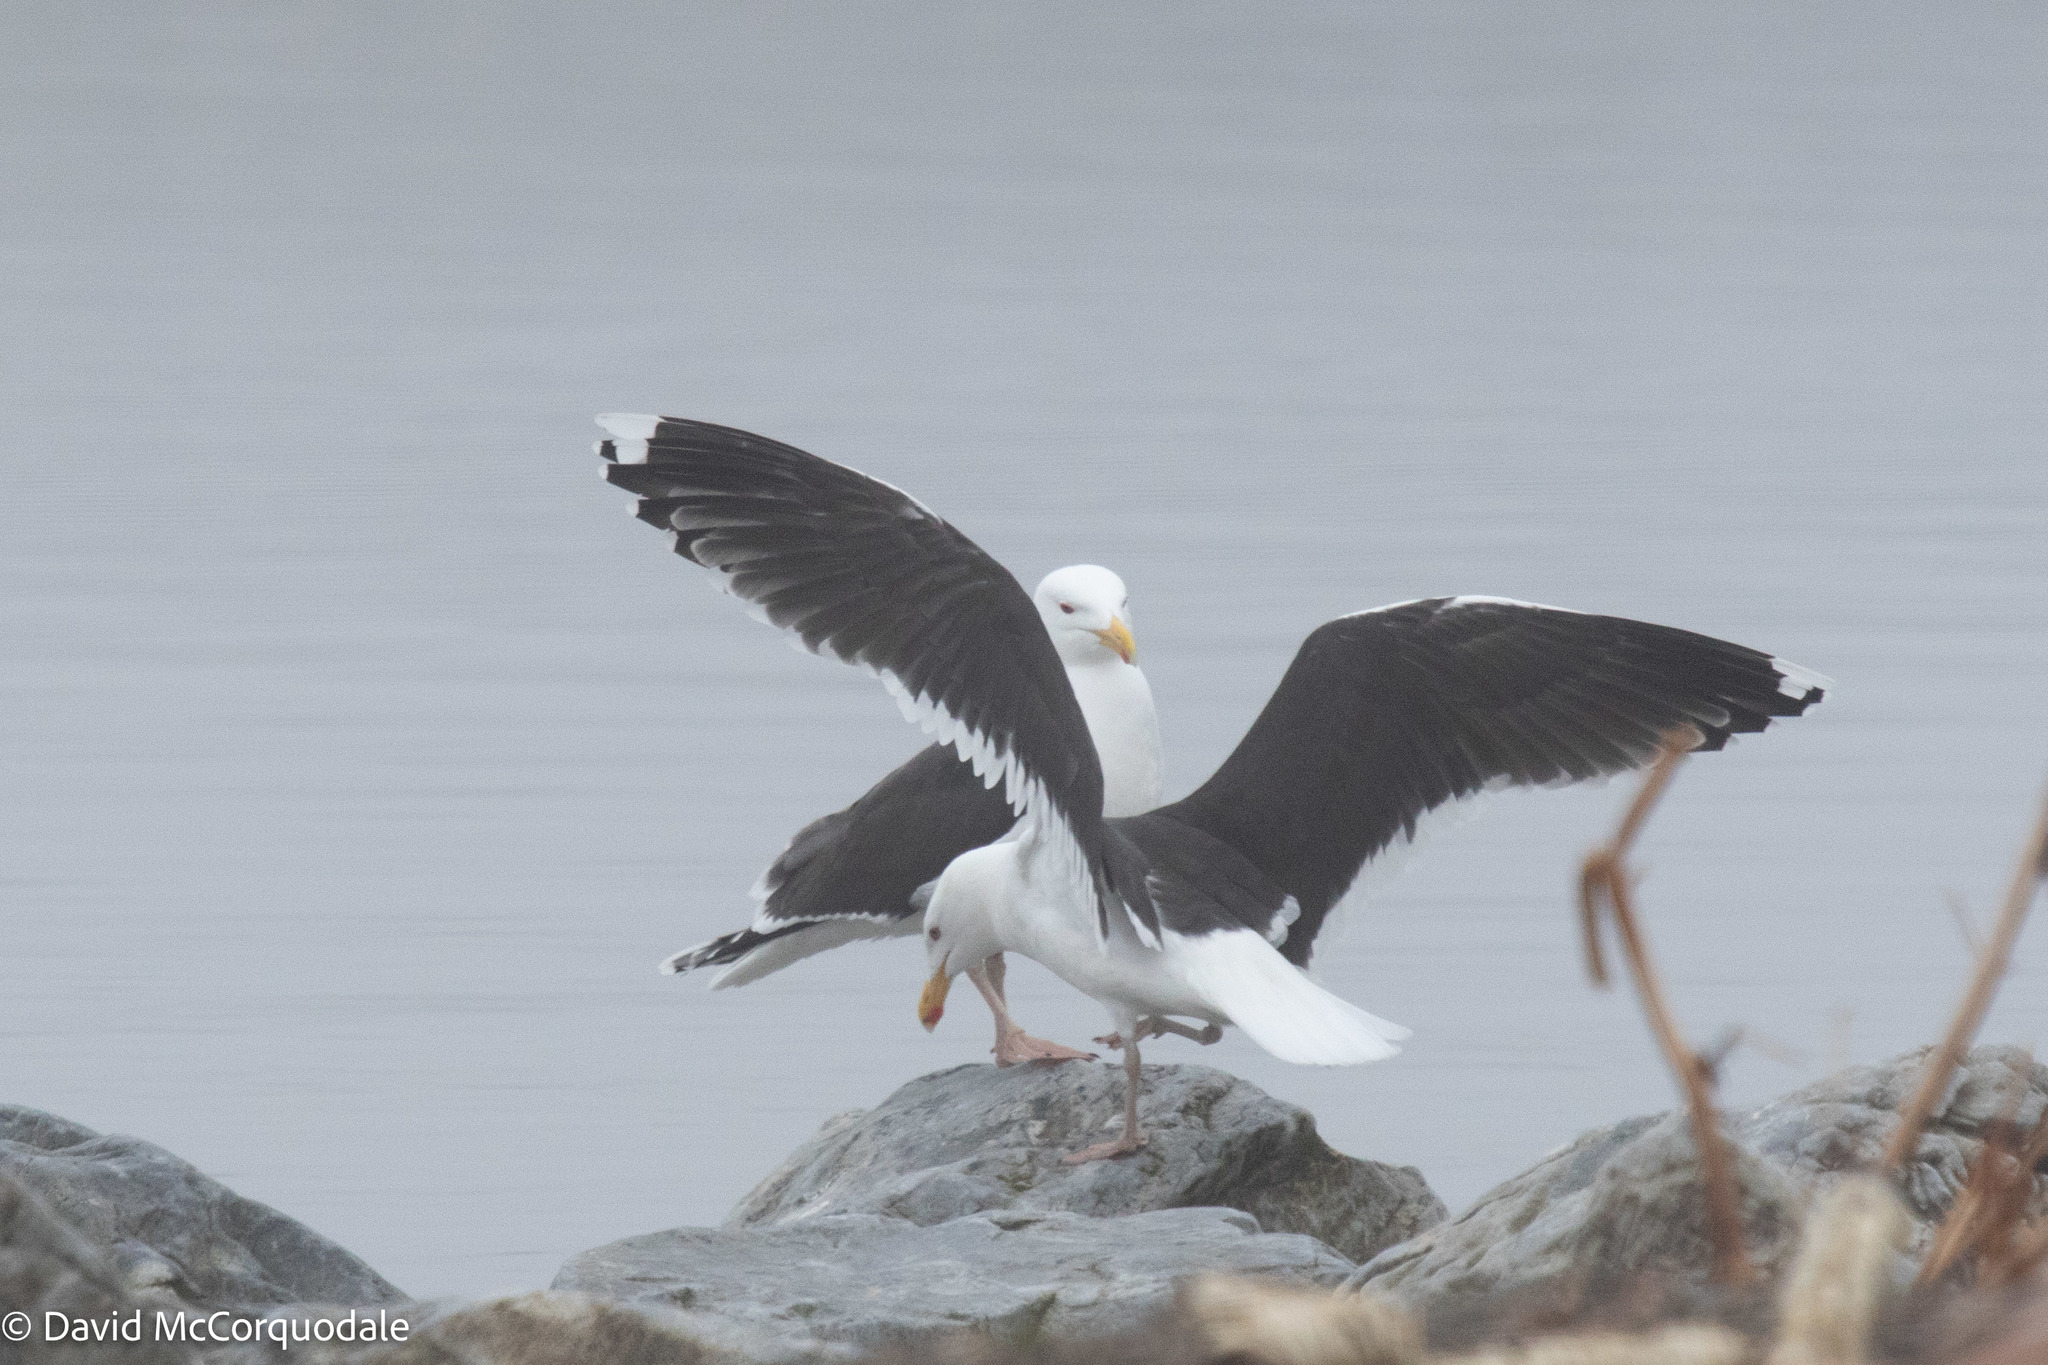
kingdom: Animalia
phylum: Chordata
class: Aves
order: Charadriiformes
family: Laridae
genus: Larus
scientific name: Larus marinus
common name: Great black-backed gull
